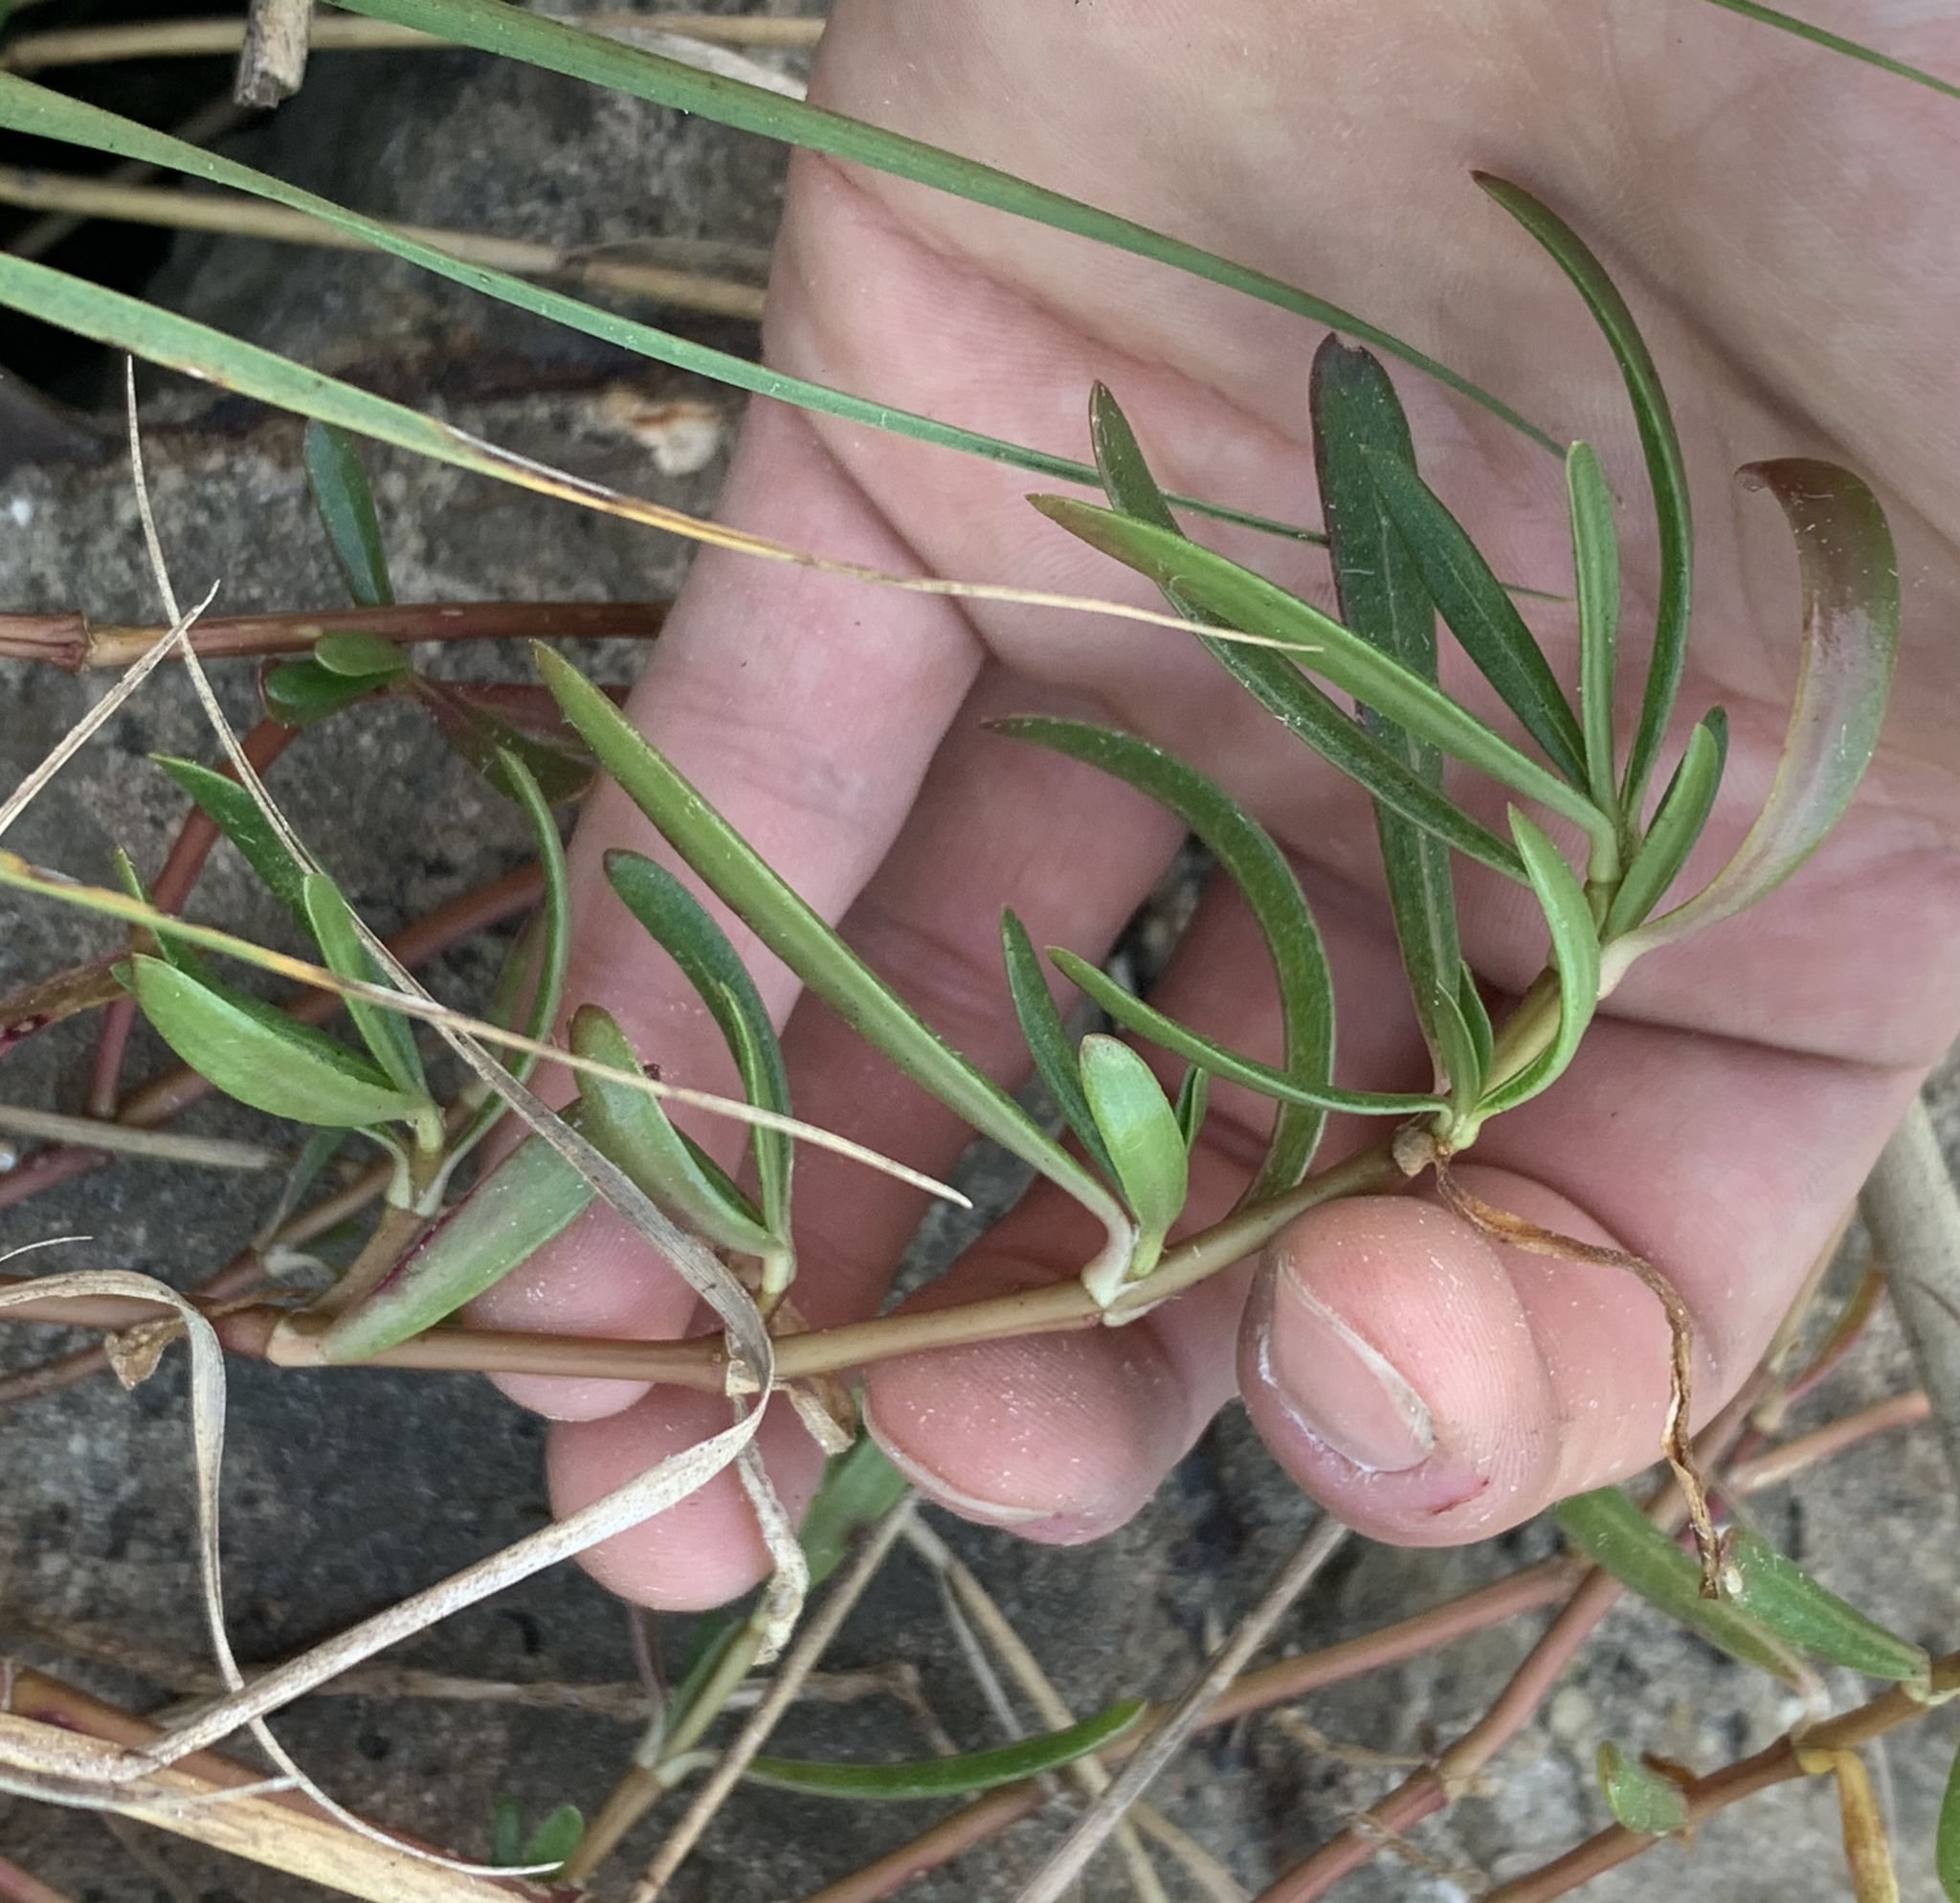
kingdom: Plantae
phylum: Tracheophyta
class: Magnoliopsida
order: Caryophyllales
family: Amaranthaceae
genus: Gomphrena
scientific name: Gomphrena vermicularis
